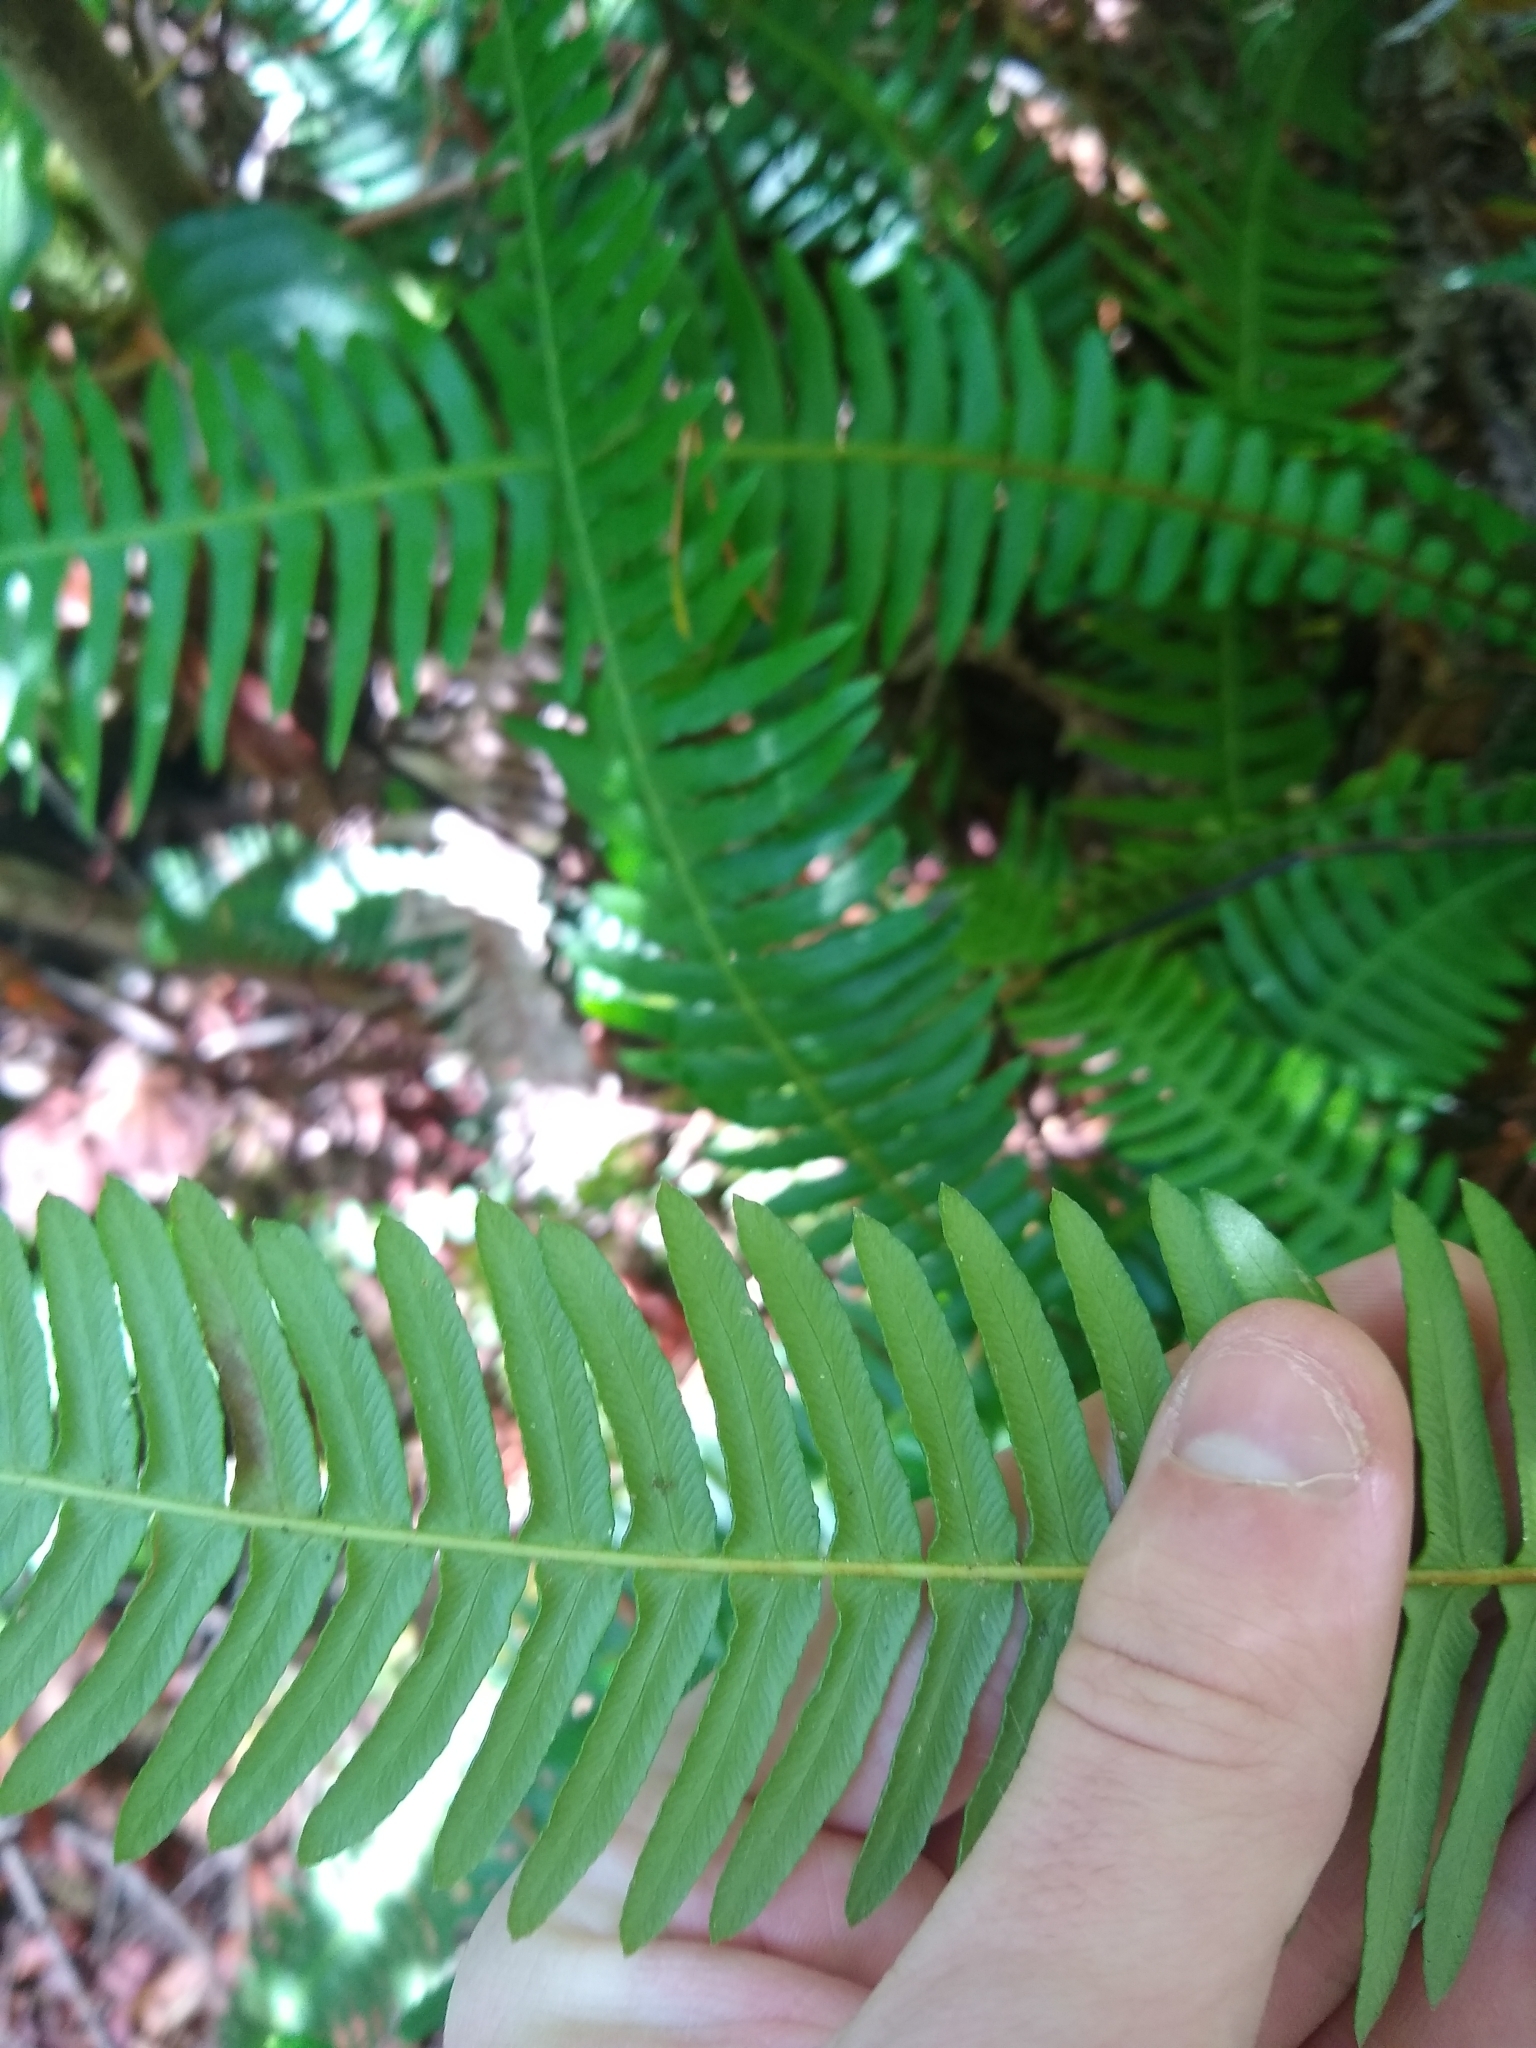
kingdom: Plantae
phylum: Tracheophyta
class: Polypodiopsida
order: Polypodiales
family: Blechnaceae
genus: Struthiopteris
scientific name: Struthiopteris spicant
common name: Deer fern
